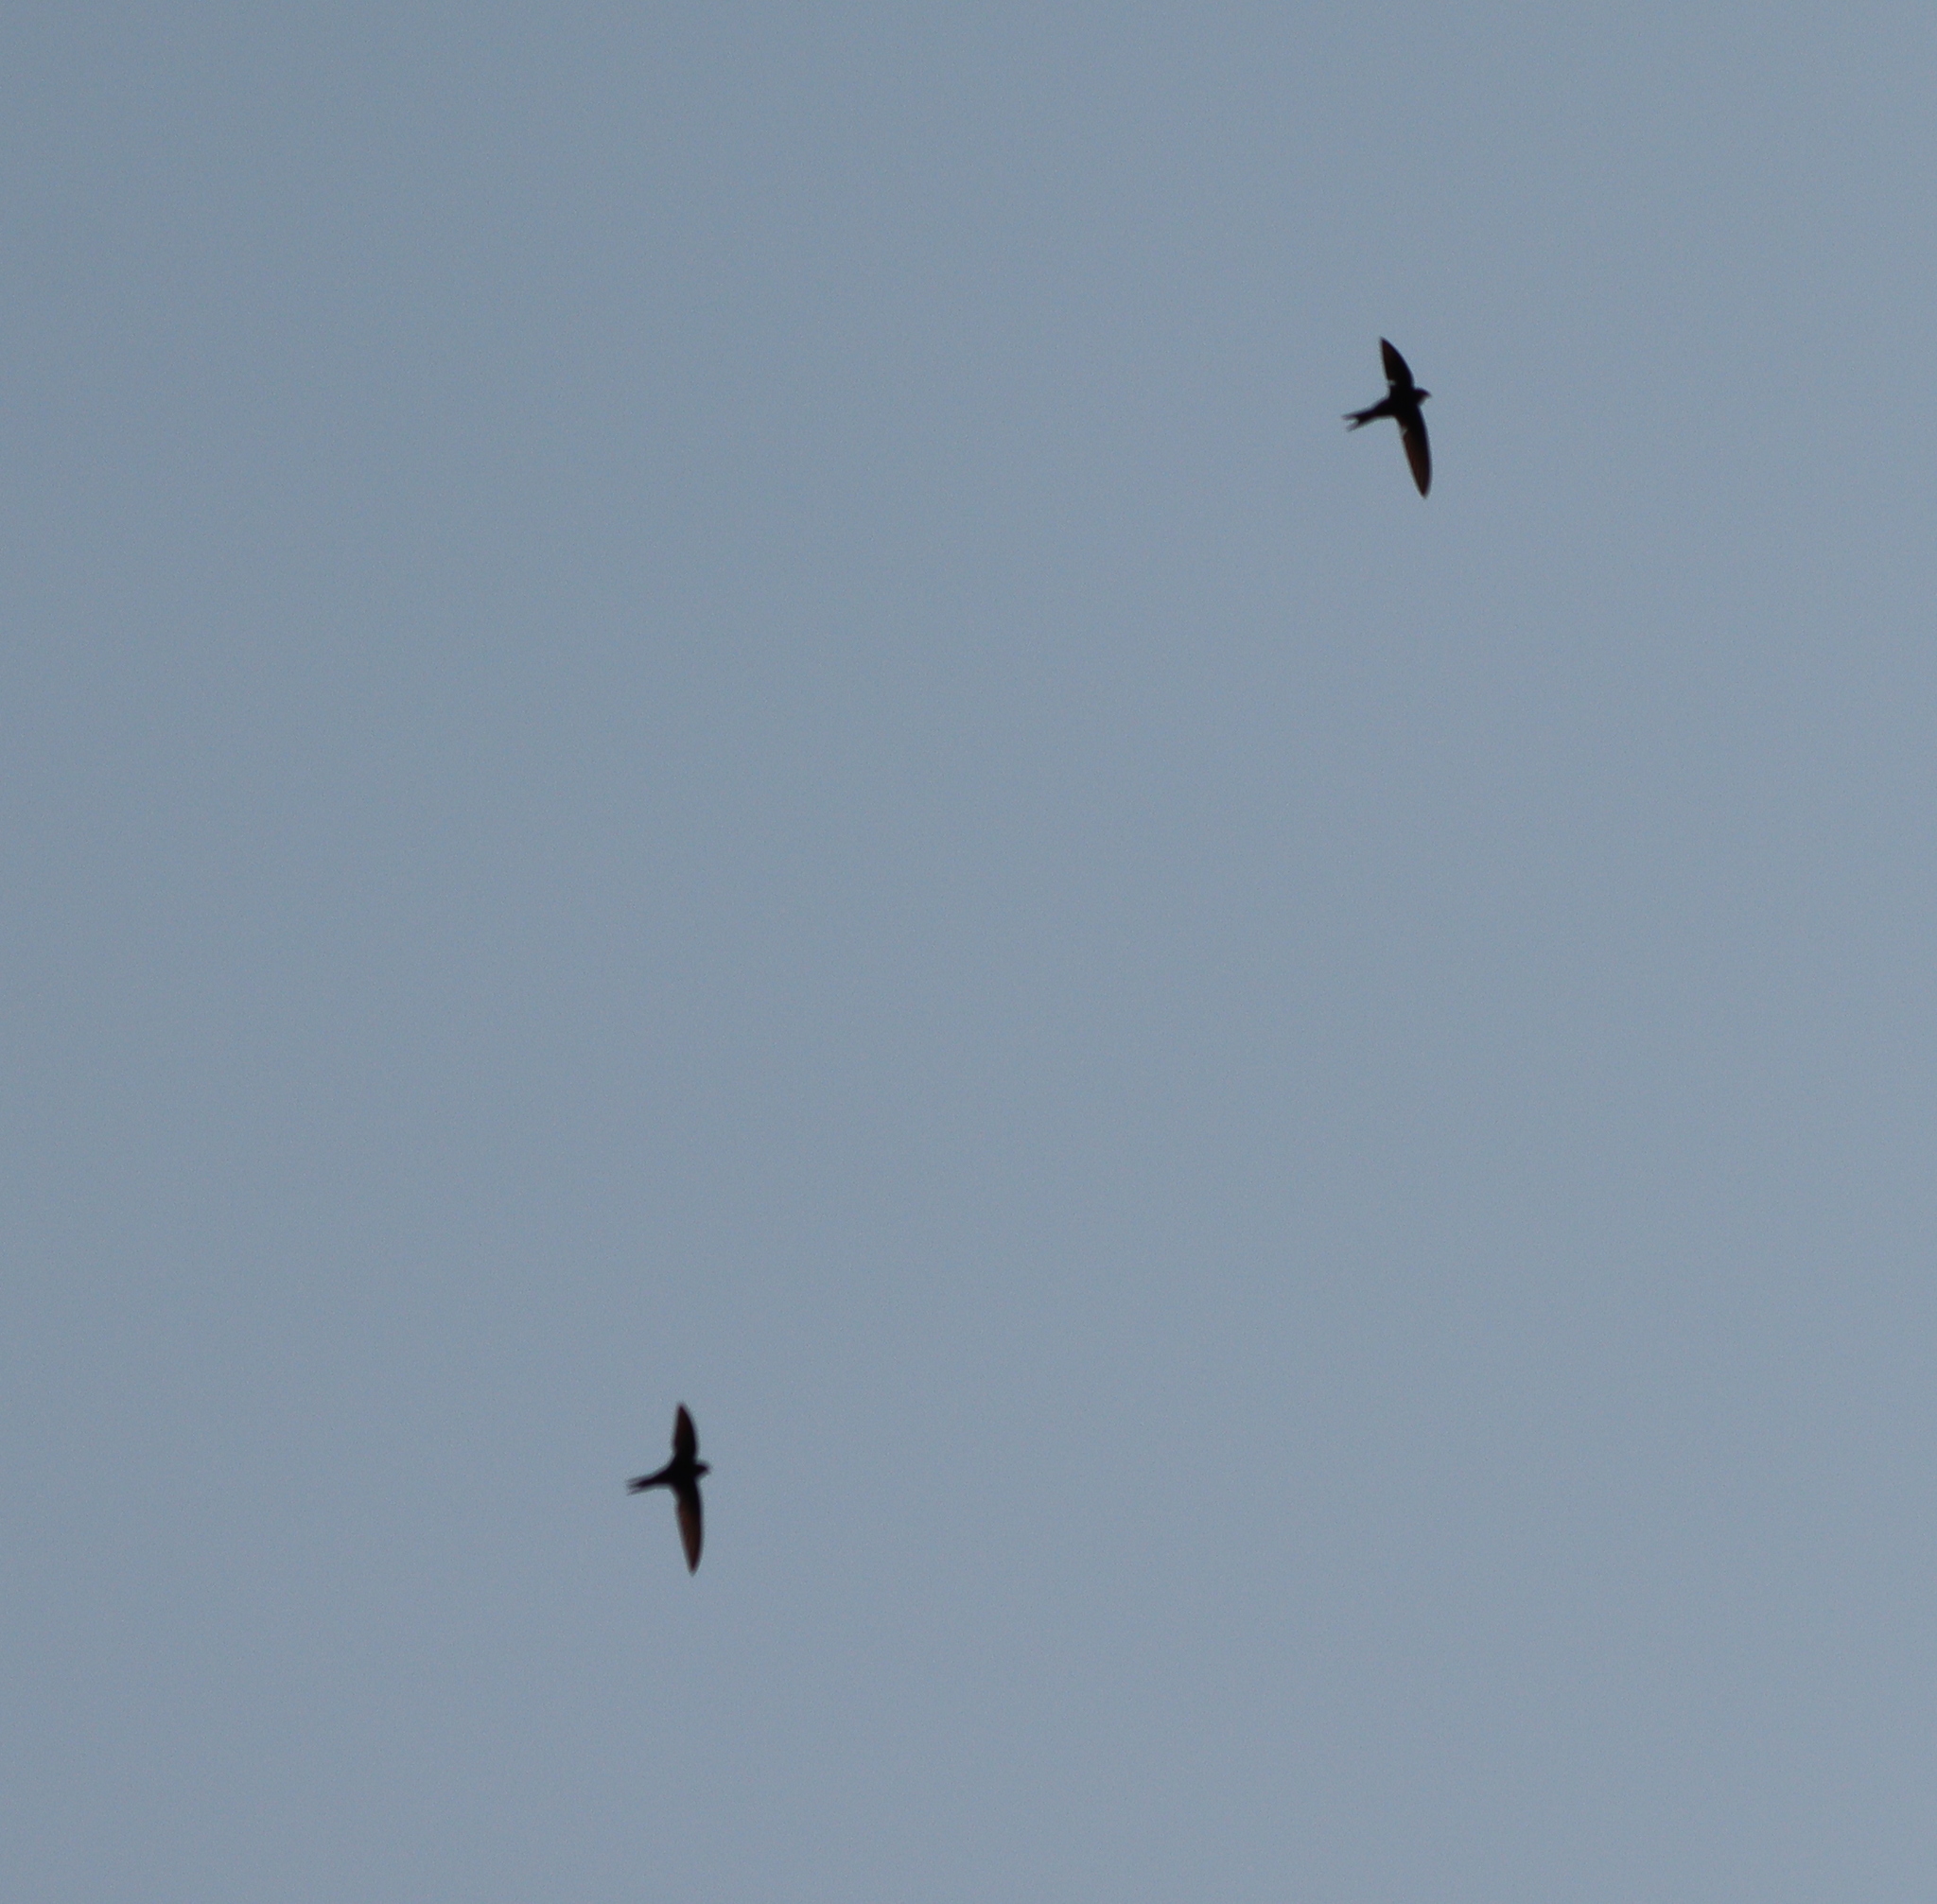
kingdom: Animalia
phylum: Chordata
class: Aves
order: Apodiformes
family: Apodidae
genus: Apus
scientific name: Apus apus
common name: Common swift
